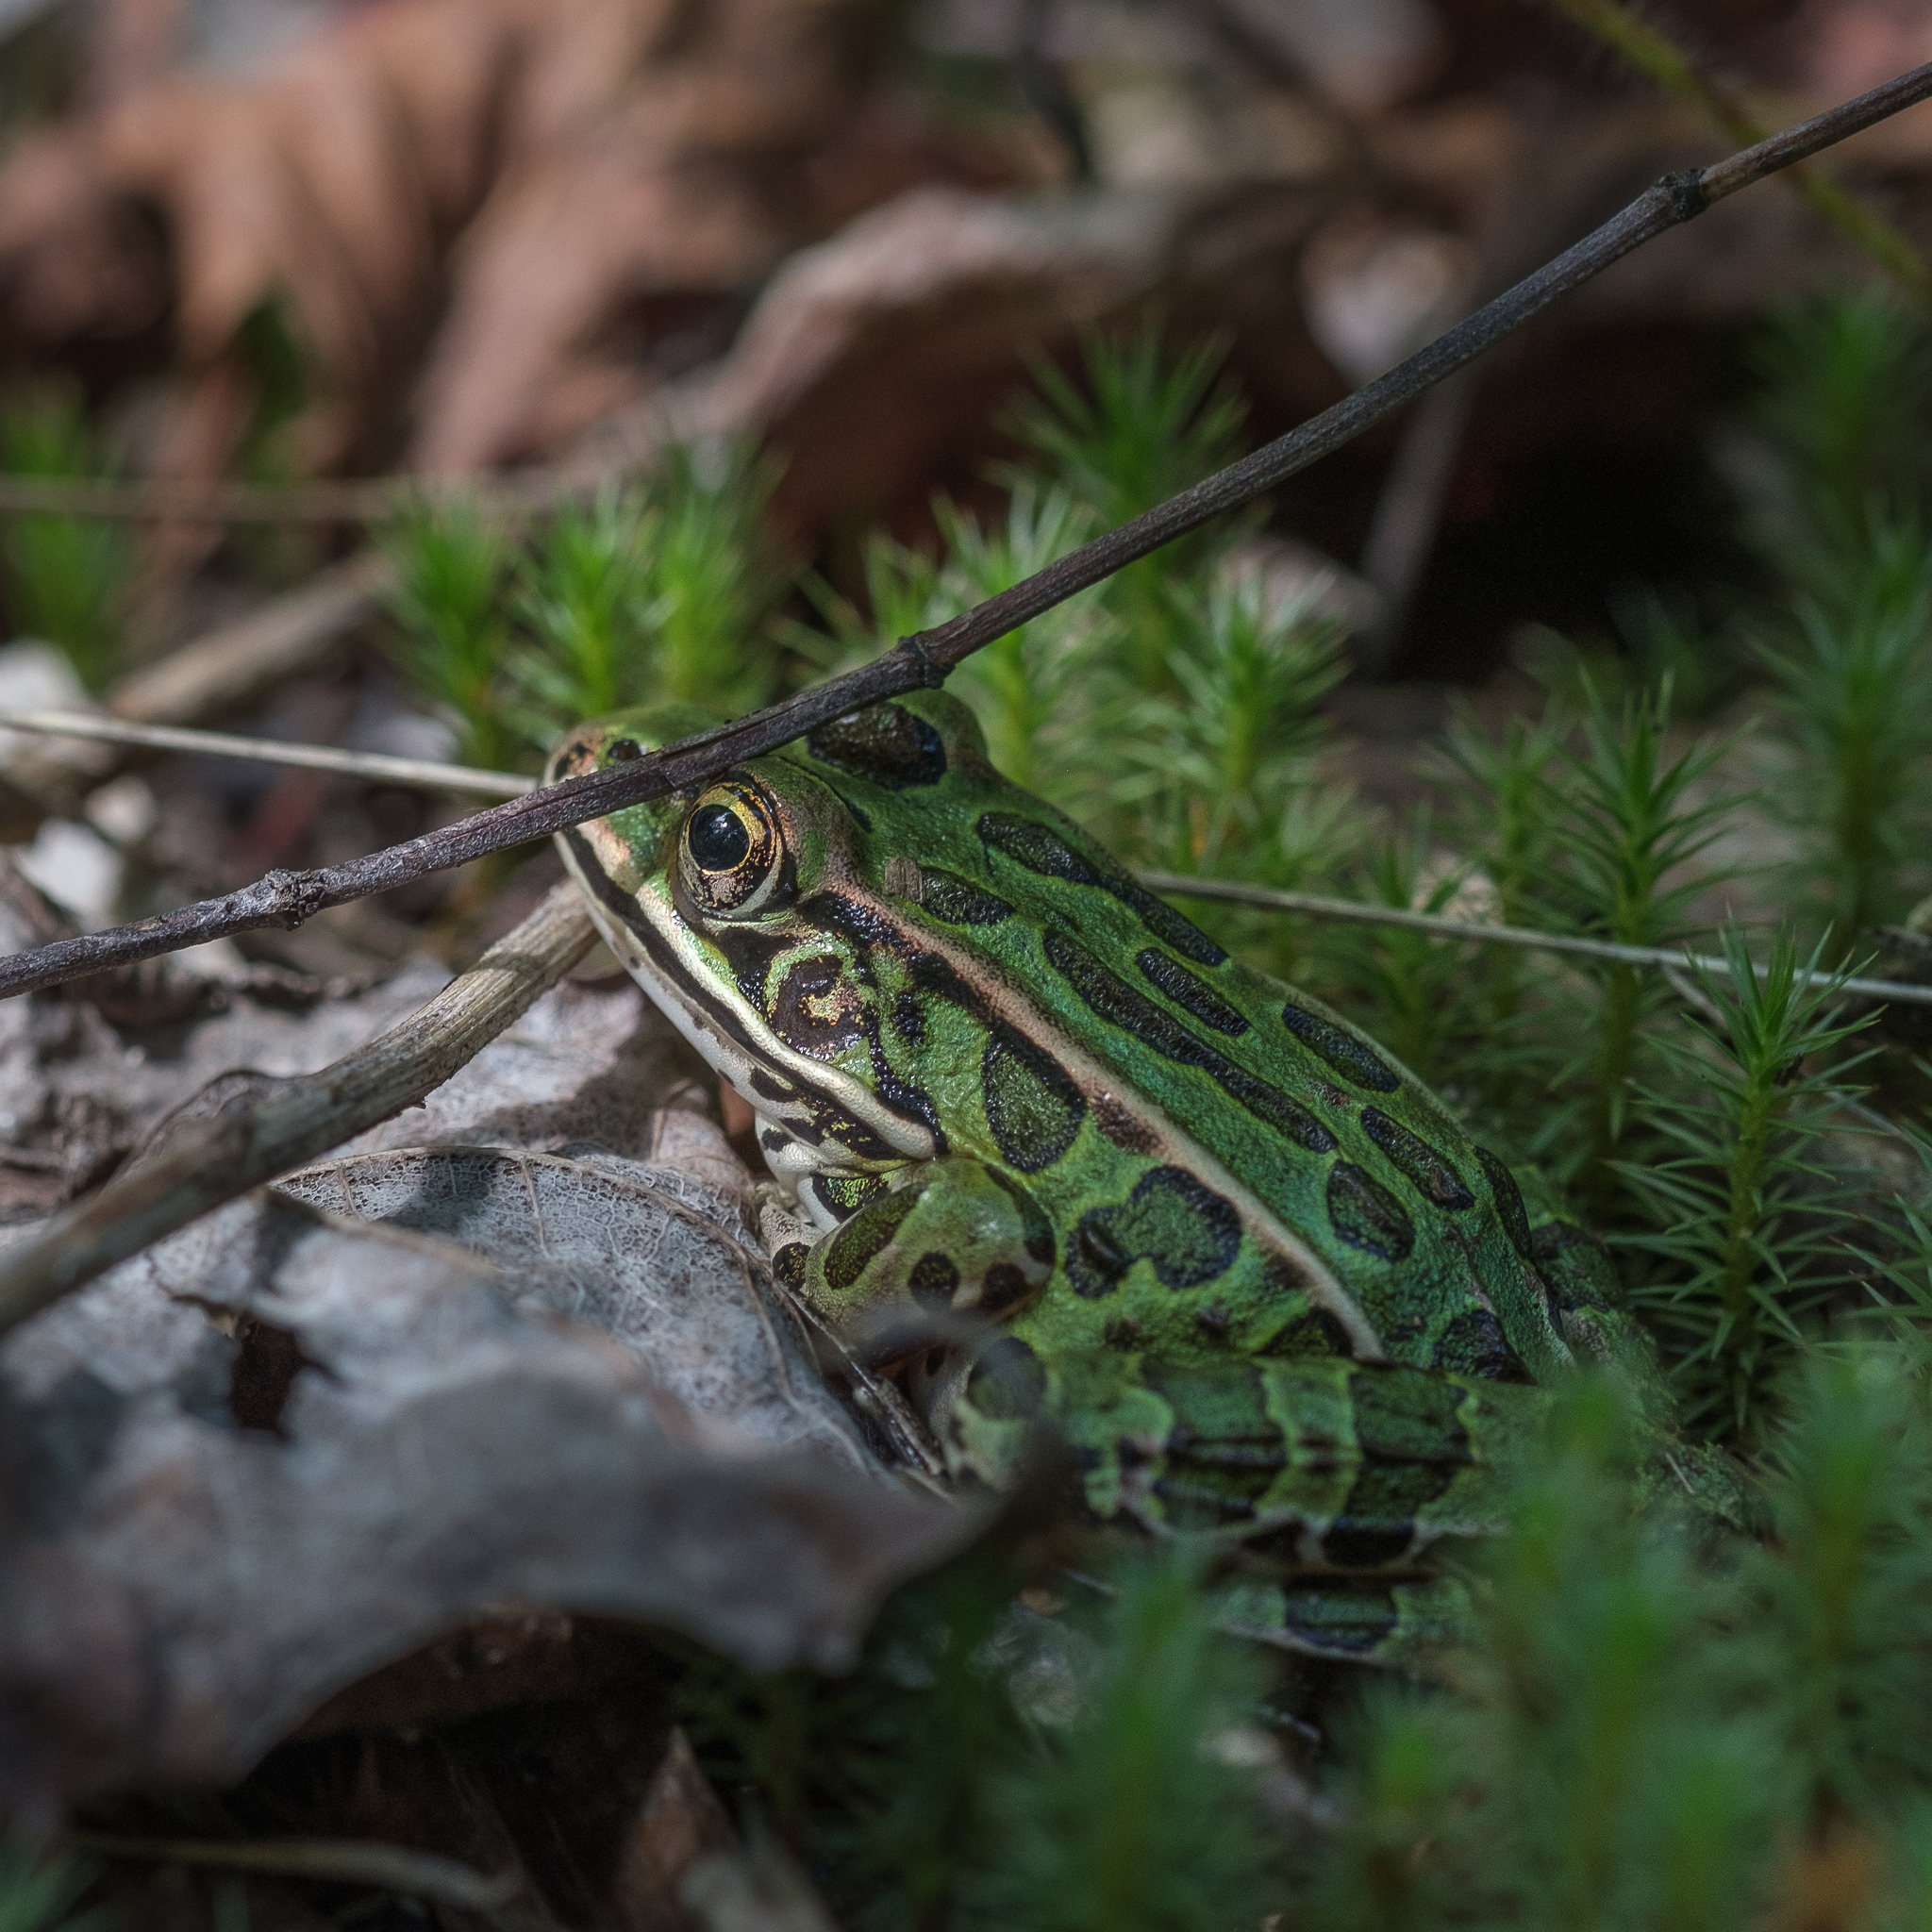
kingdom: Animalia
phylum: Chordata
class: Amphibia
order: Anura
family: Ranidae
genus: Lithobates
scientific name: Lithobates pipiens
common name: Northern leopard frog
